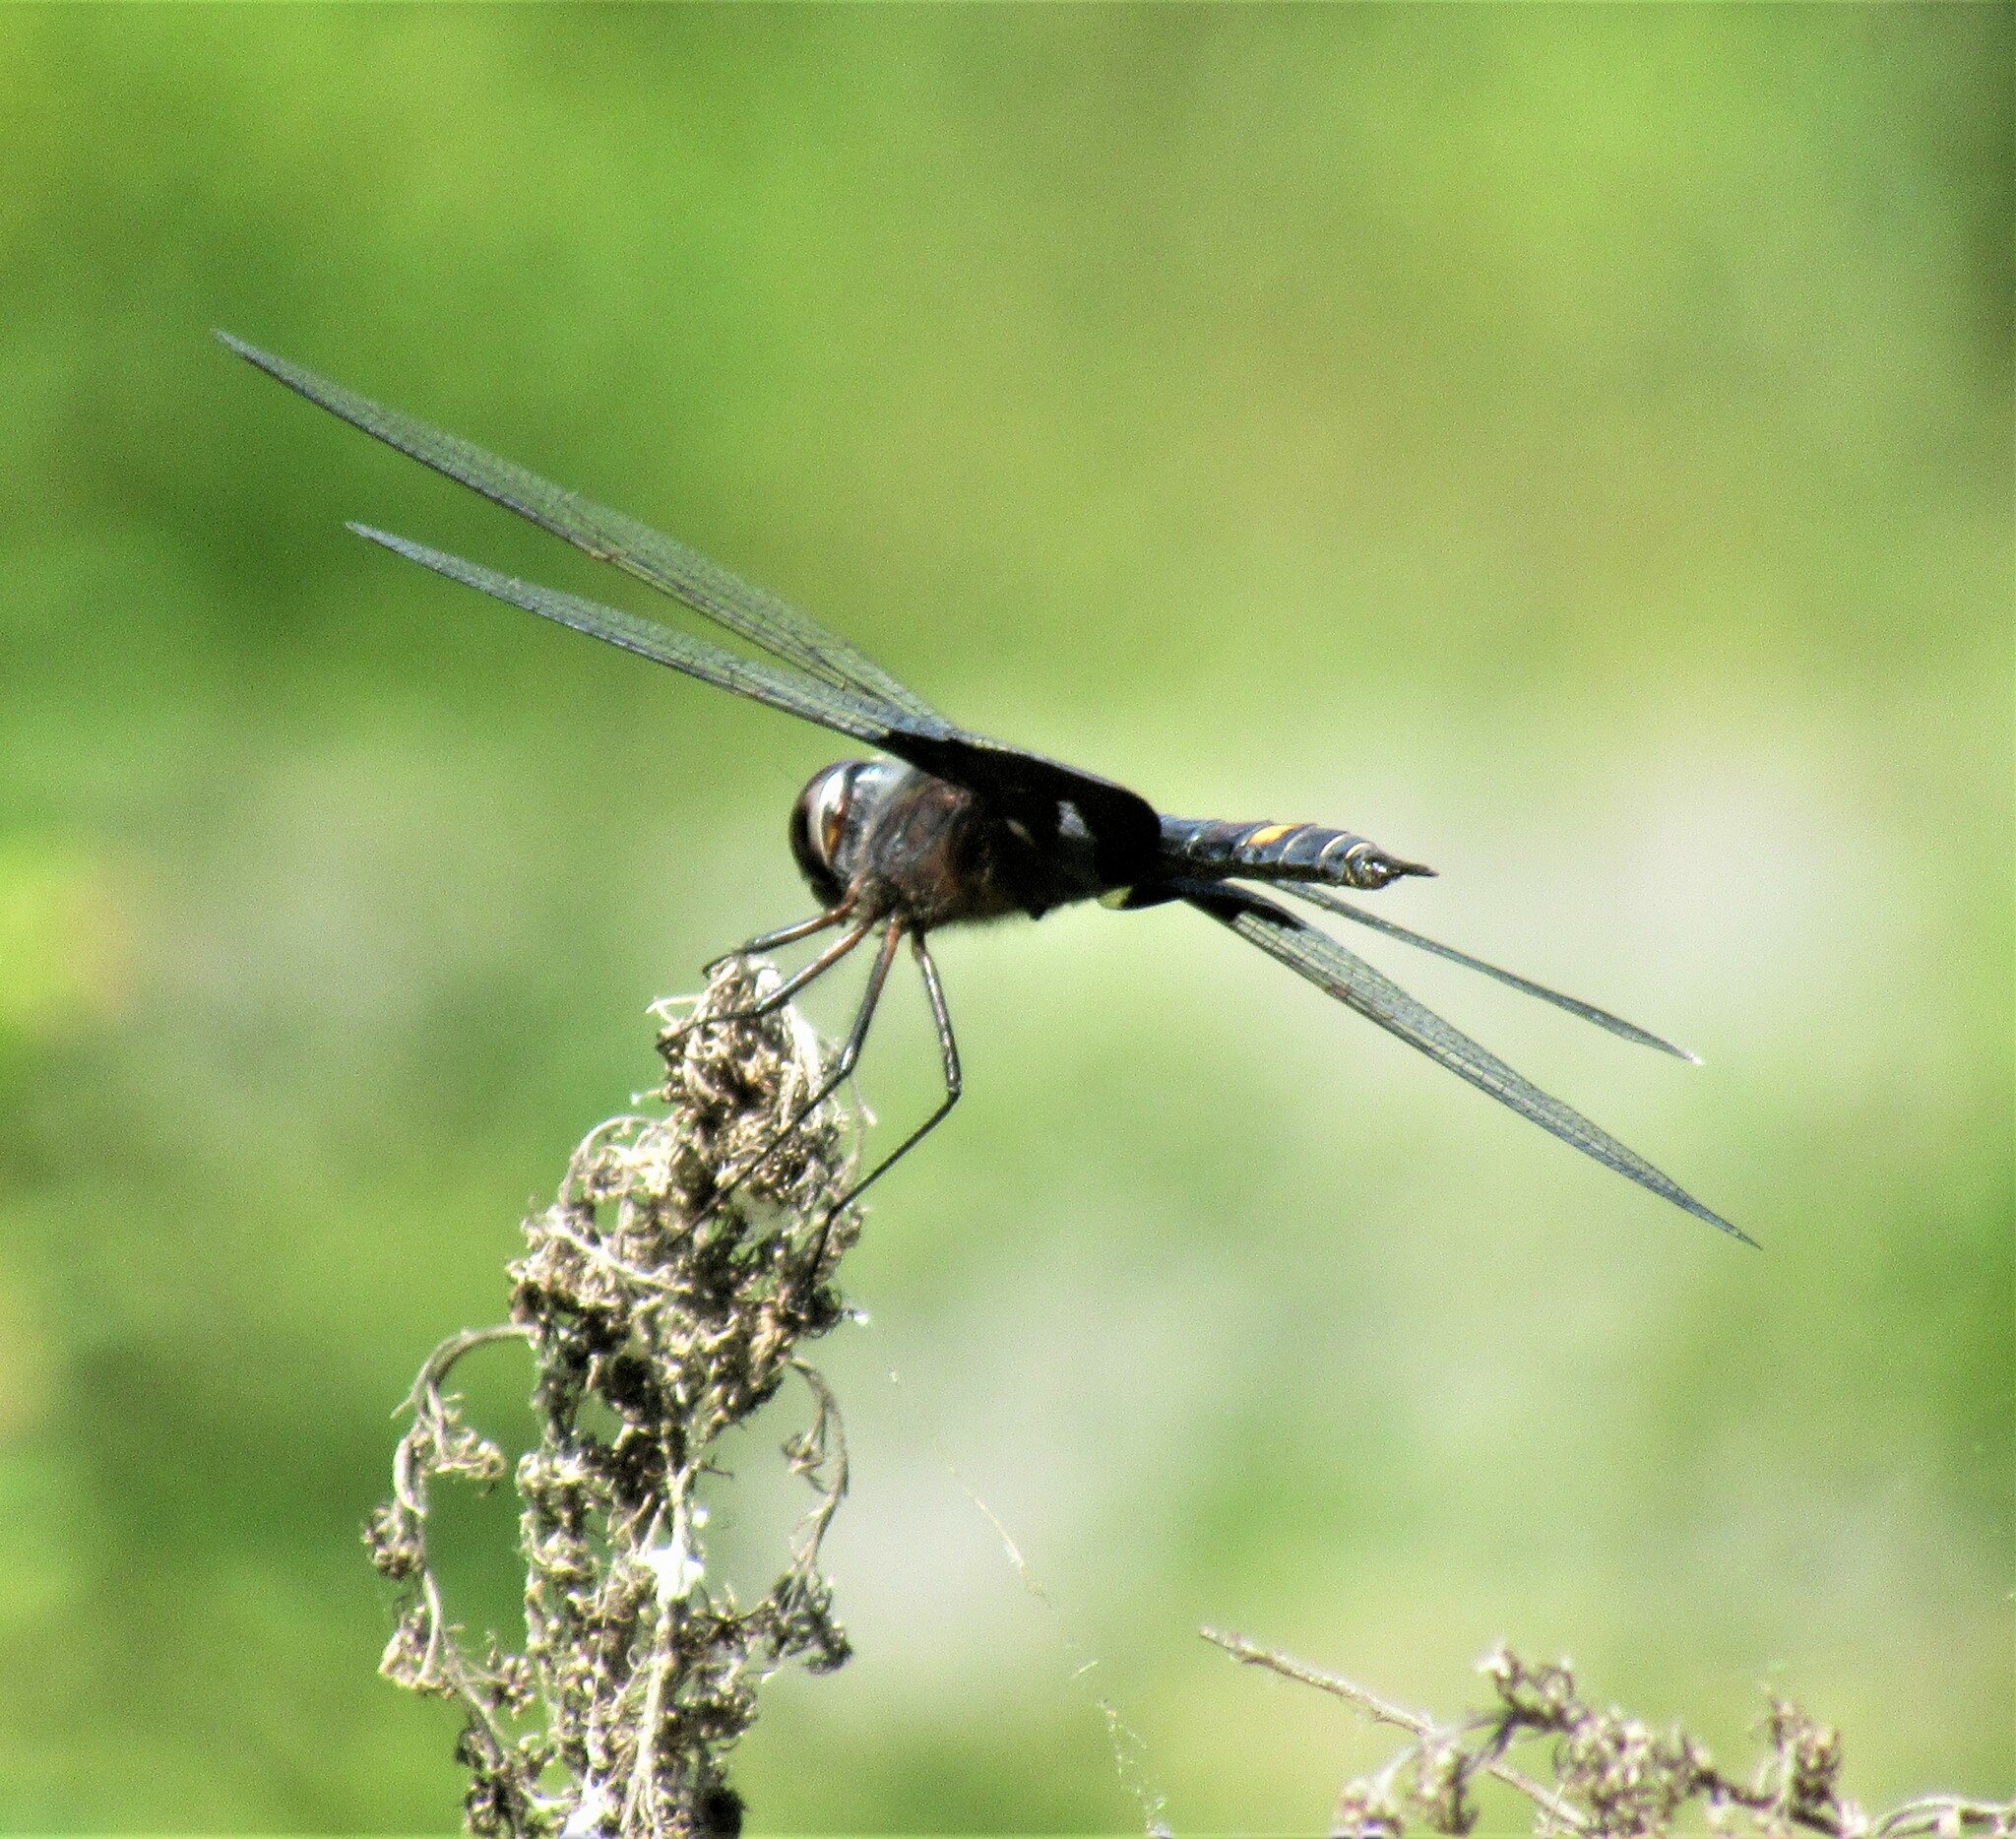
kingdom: Animalia
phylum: Arthropoda
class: Insecta
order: Odonata
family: Libellulidae
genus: Tramea
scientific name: Tramea lacerata
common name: Black saddlebags
